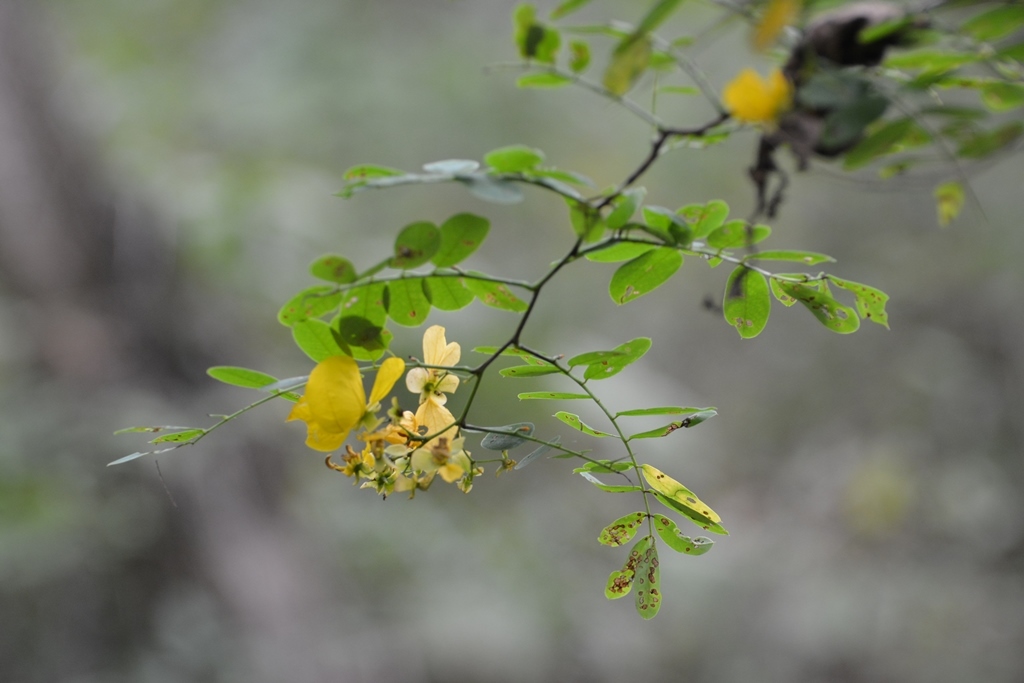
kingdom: Plantae
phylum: Tracheophyta
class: Magnoliopsida
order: Fabales
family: Fabaceae
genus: Senna
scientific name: Senna pallida
